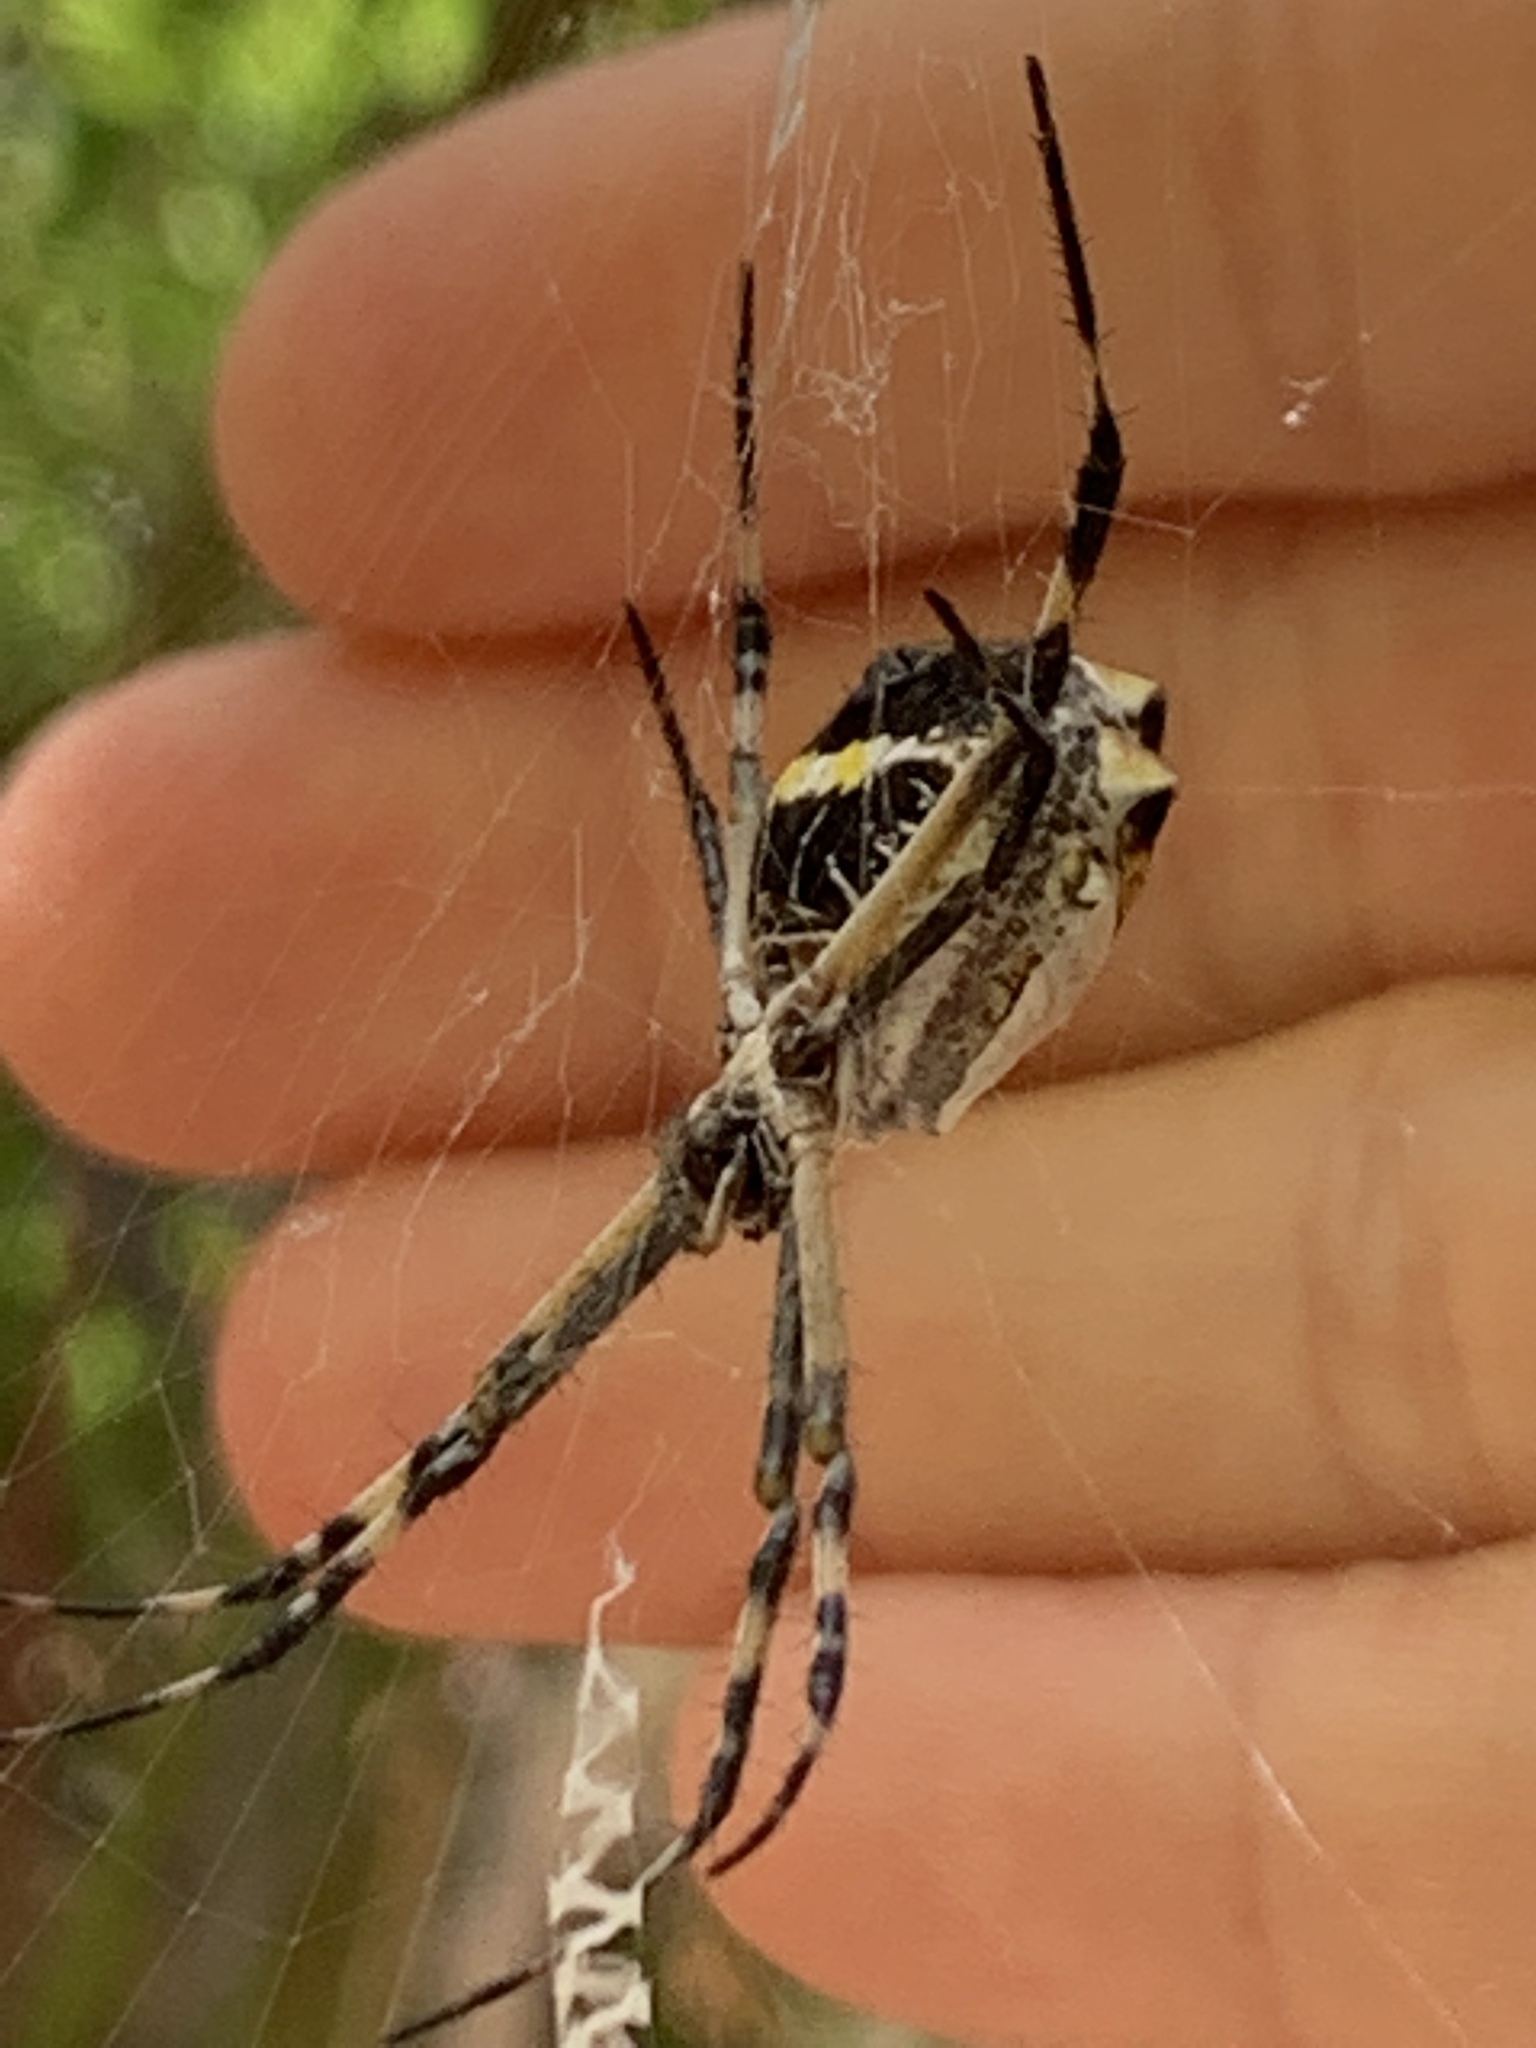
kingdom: Animalia
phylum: Arthropoda
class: Arachnida
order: Araneae
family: Araneidae
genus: Argiope
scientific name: Argiope argentata
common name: Orb weavers
